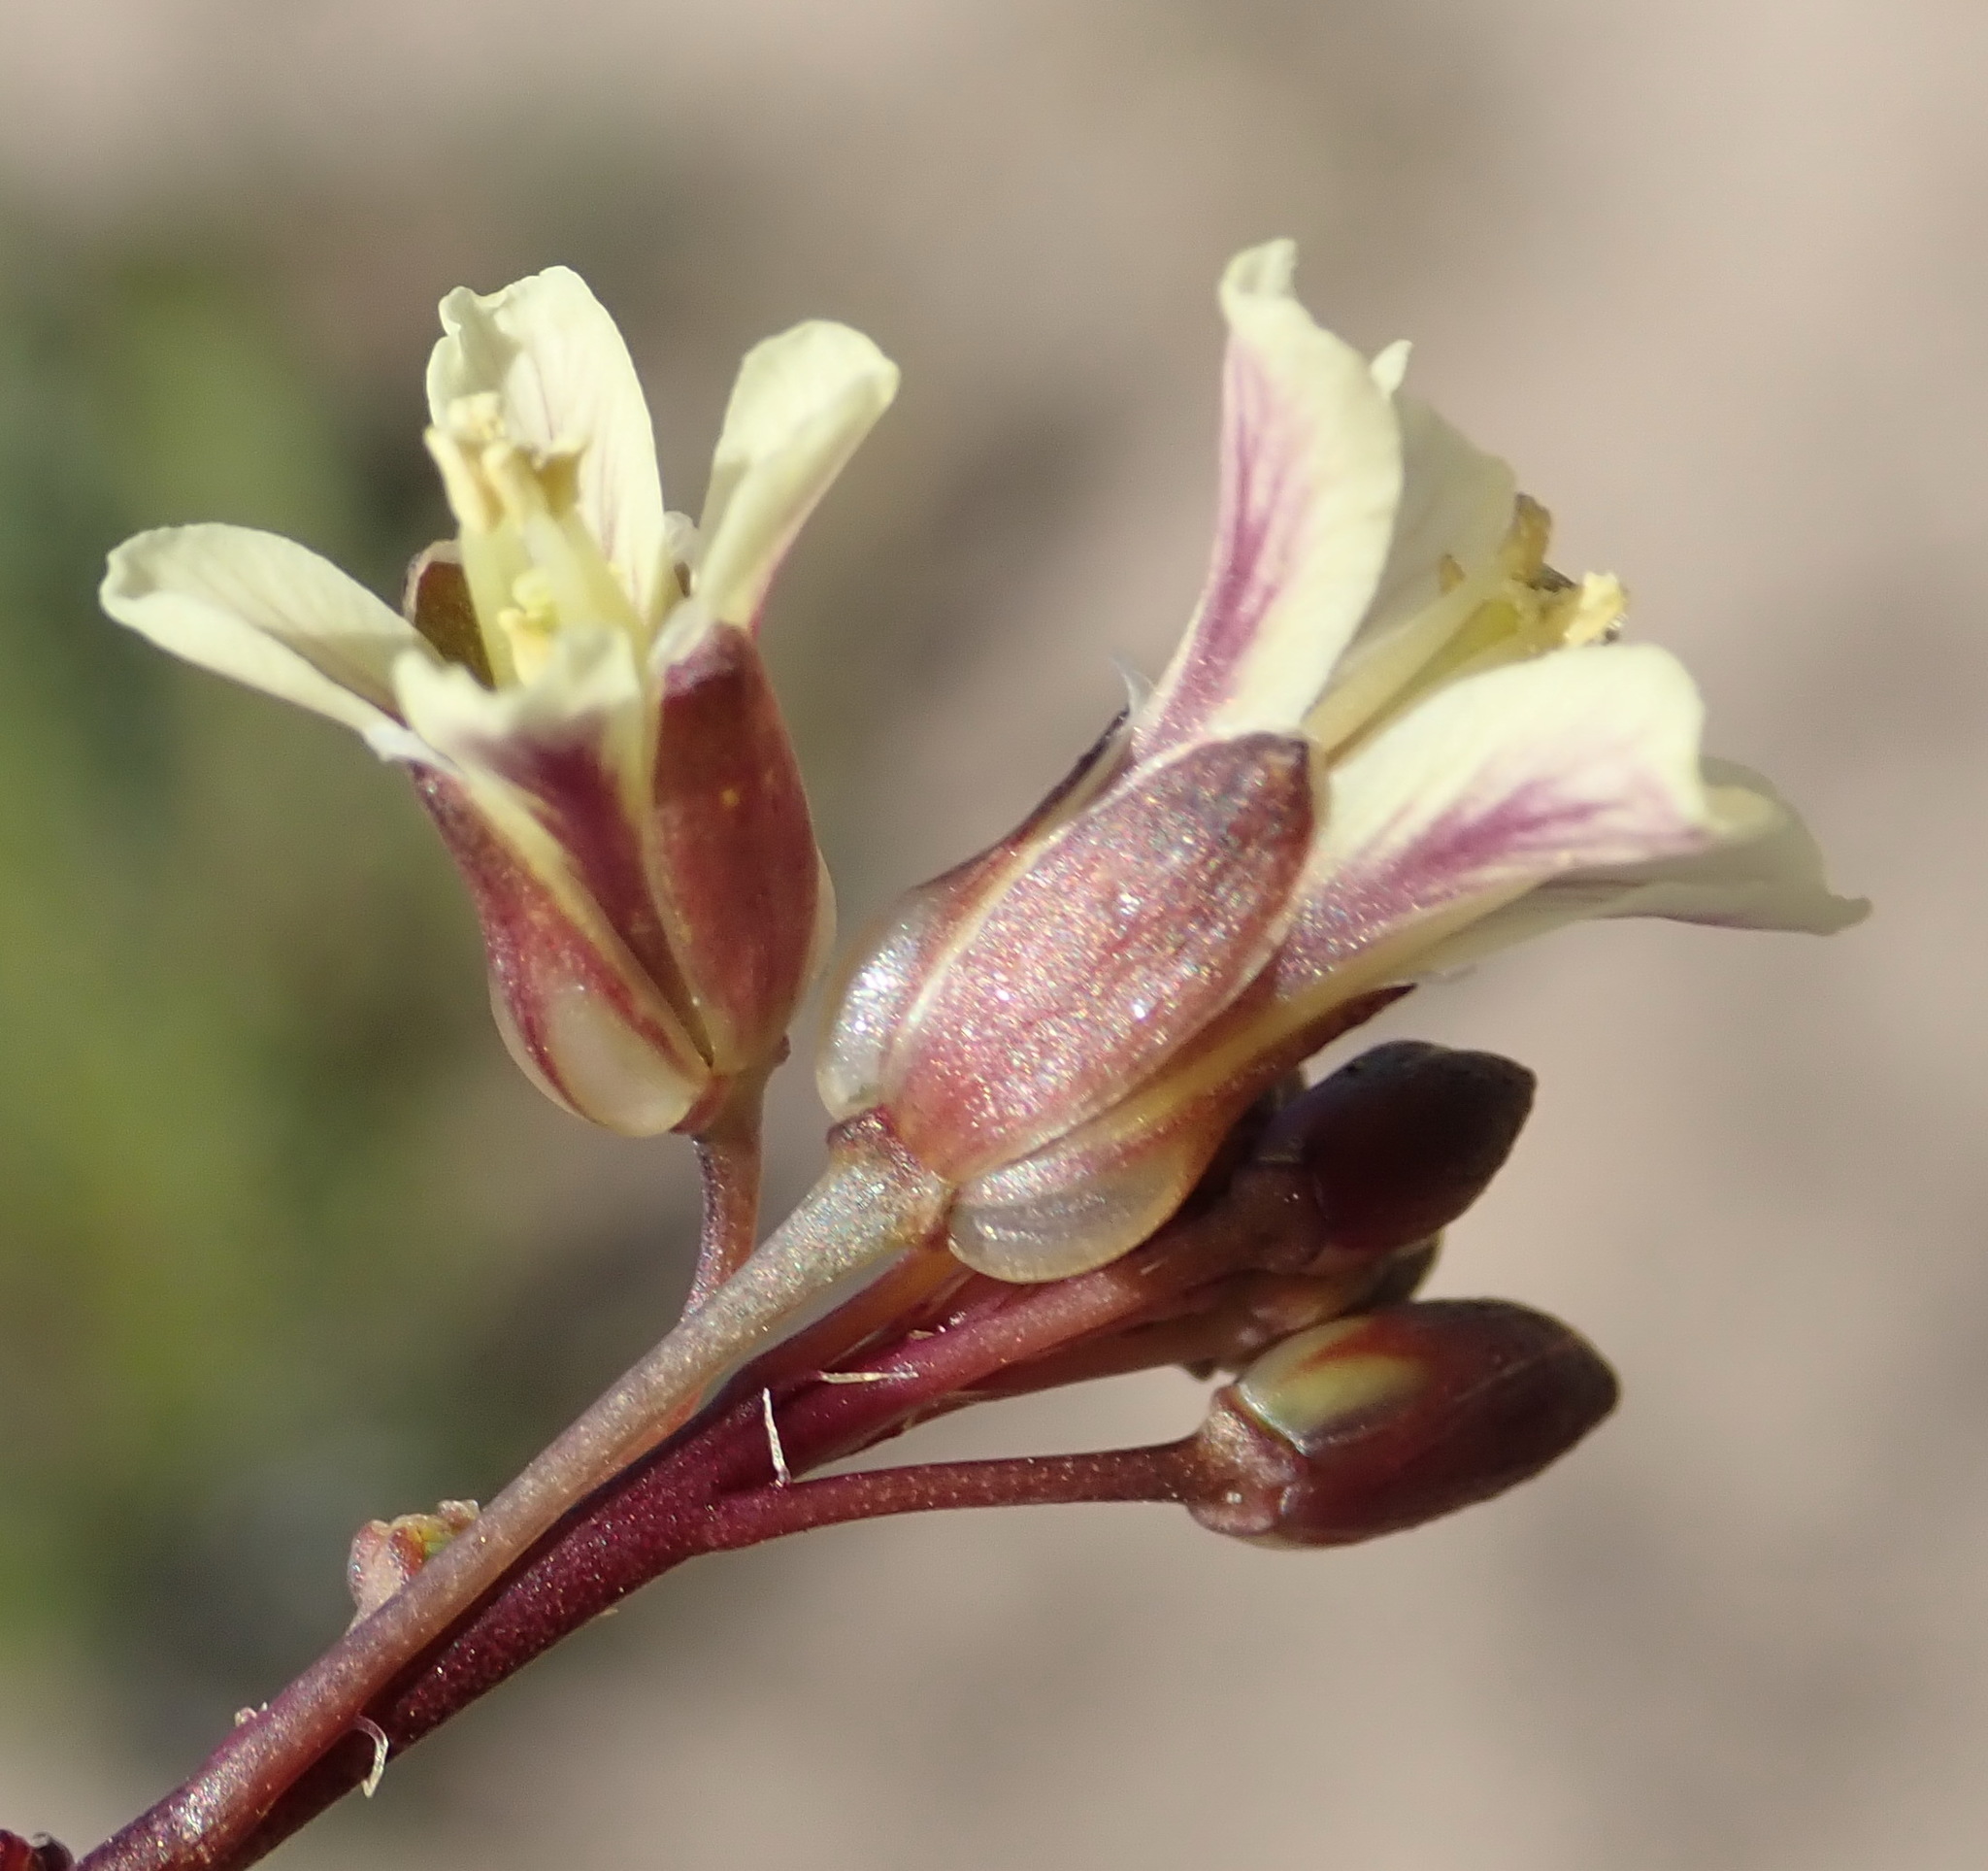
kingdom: Plantae
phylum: Tracheophyta
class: Magnoliopsida
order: Brassicales
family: Brassicaceae
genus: Heliophila
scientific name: Heliophila elongata
